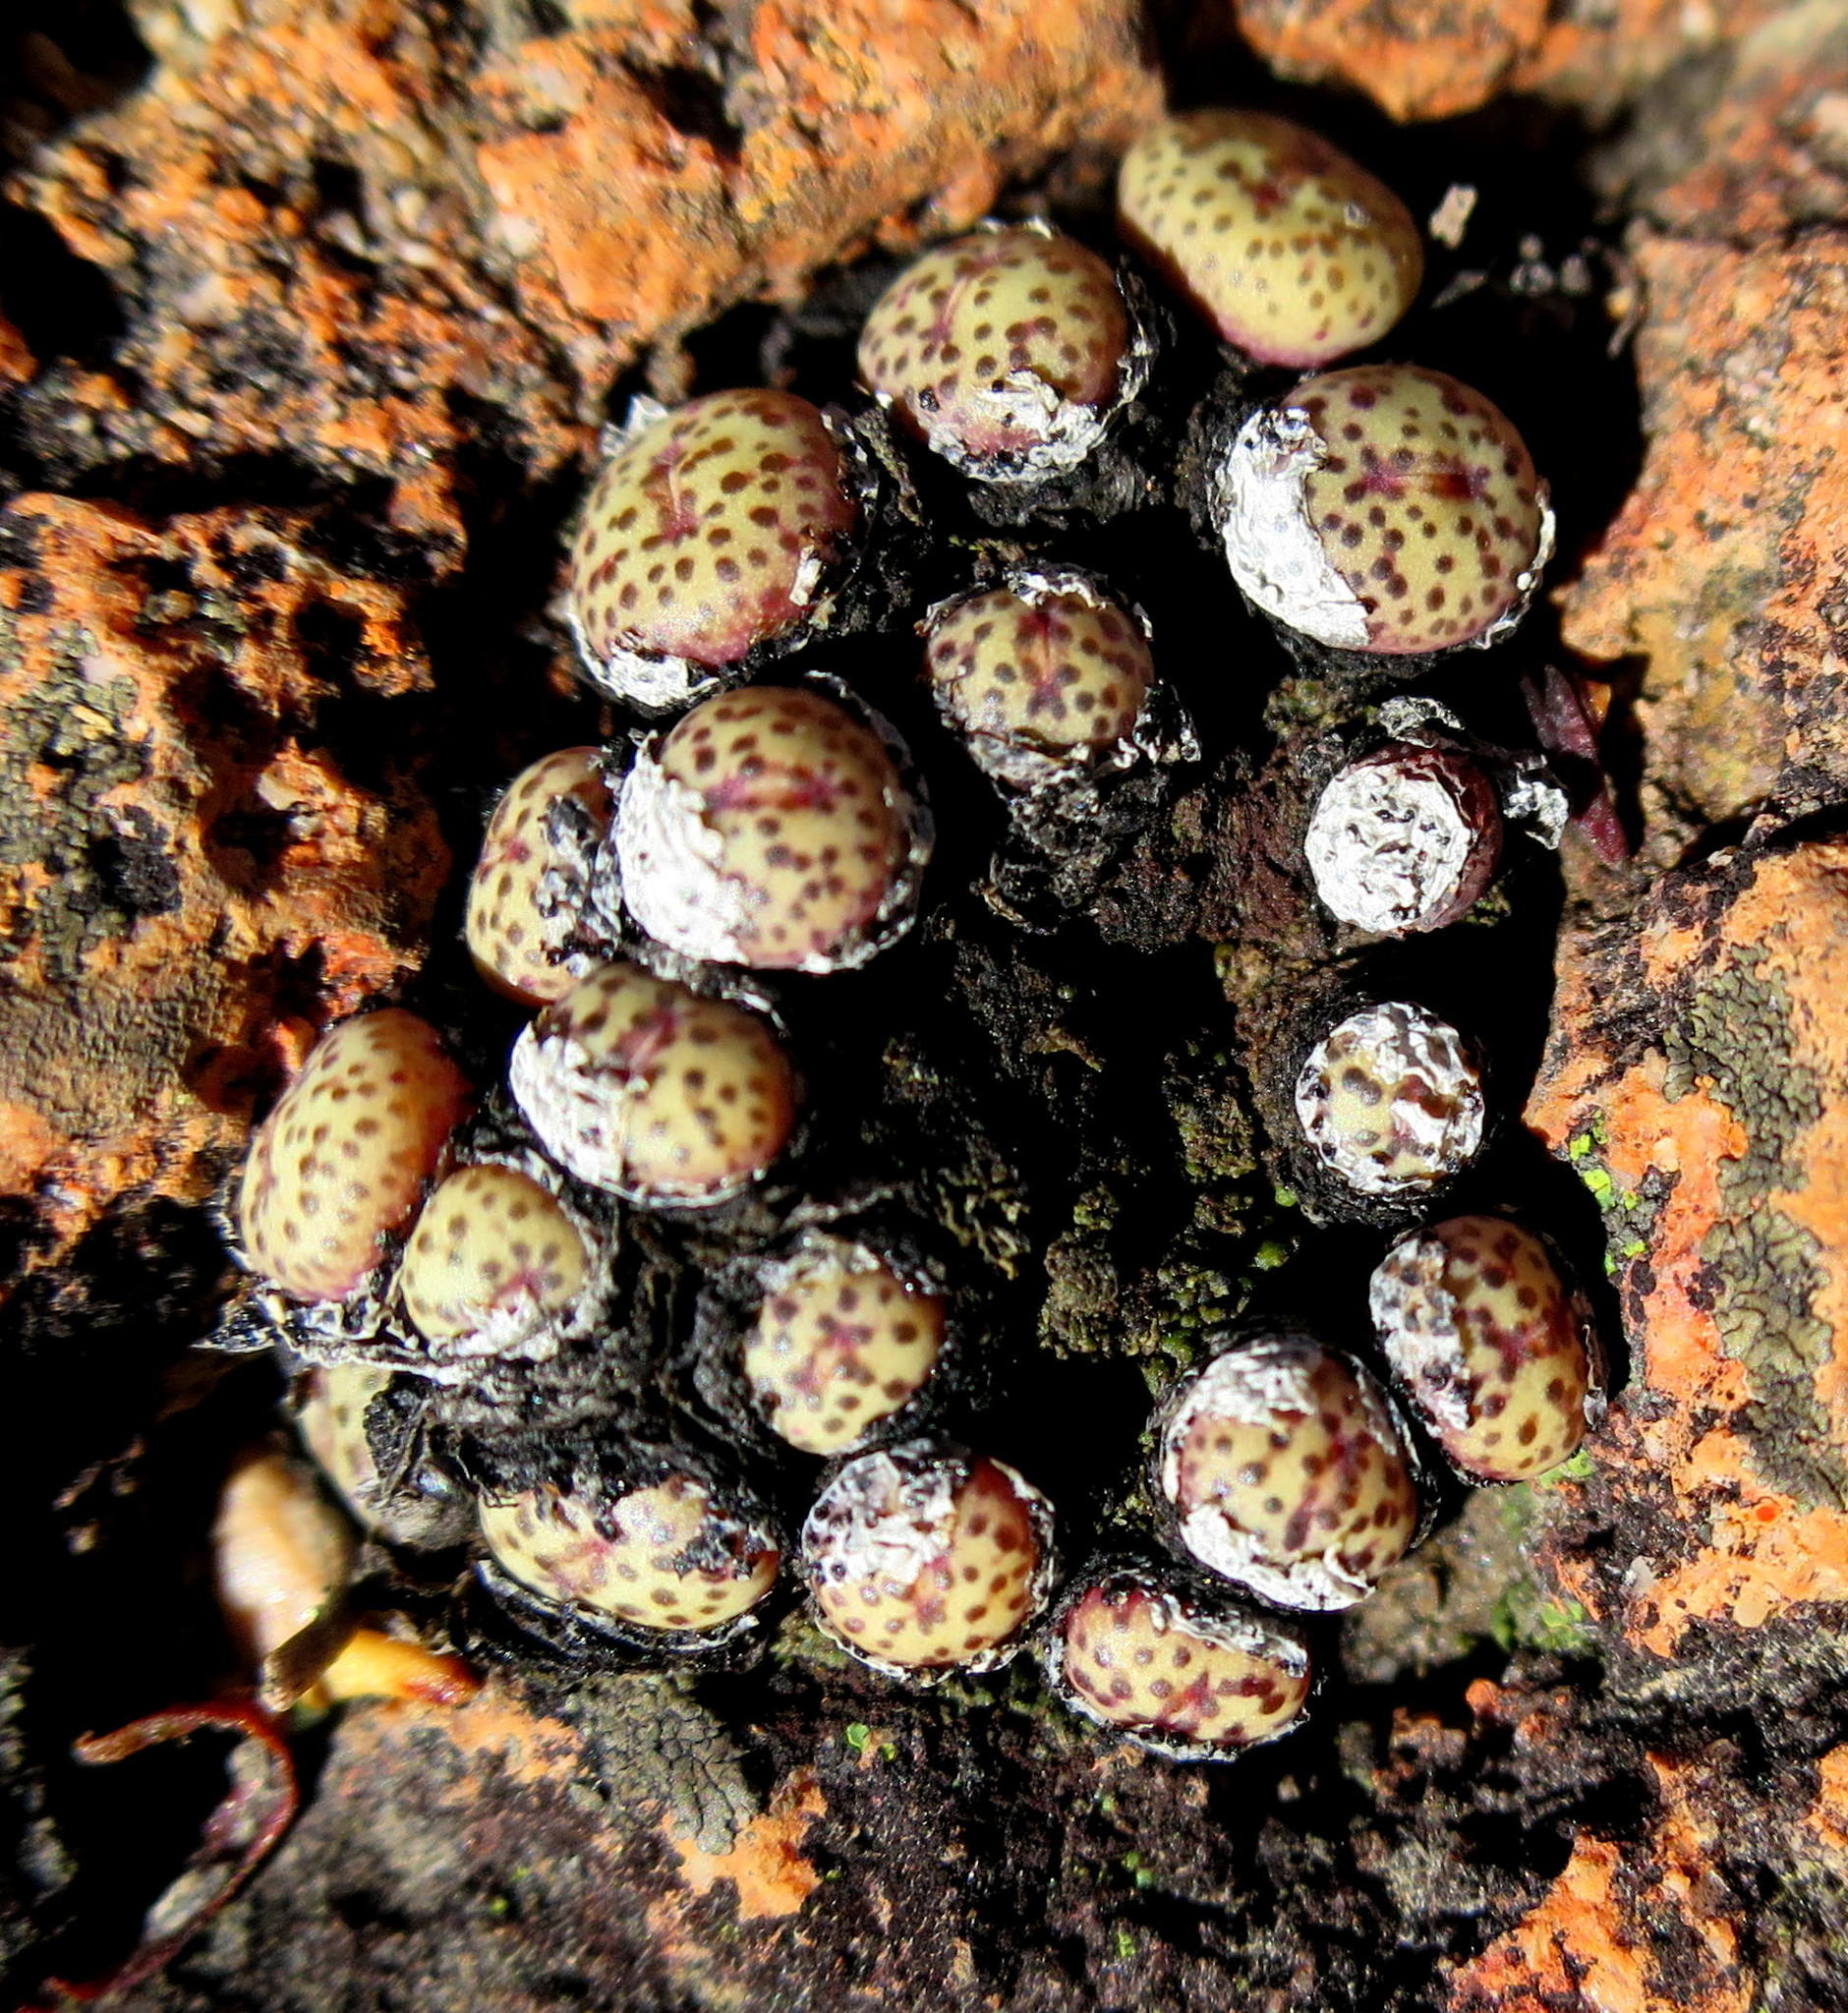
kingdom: Plantae
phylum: Tracheophyta
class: Magnoliopsida
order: Caryophyllales
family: Aizoaceae
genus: Conophytum
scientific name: Conophytum truncatum
